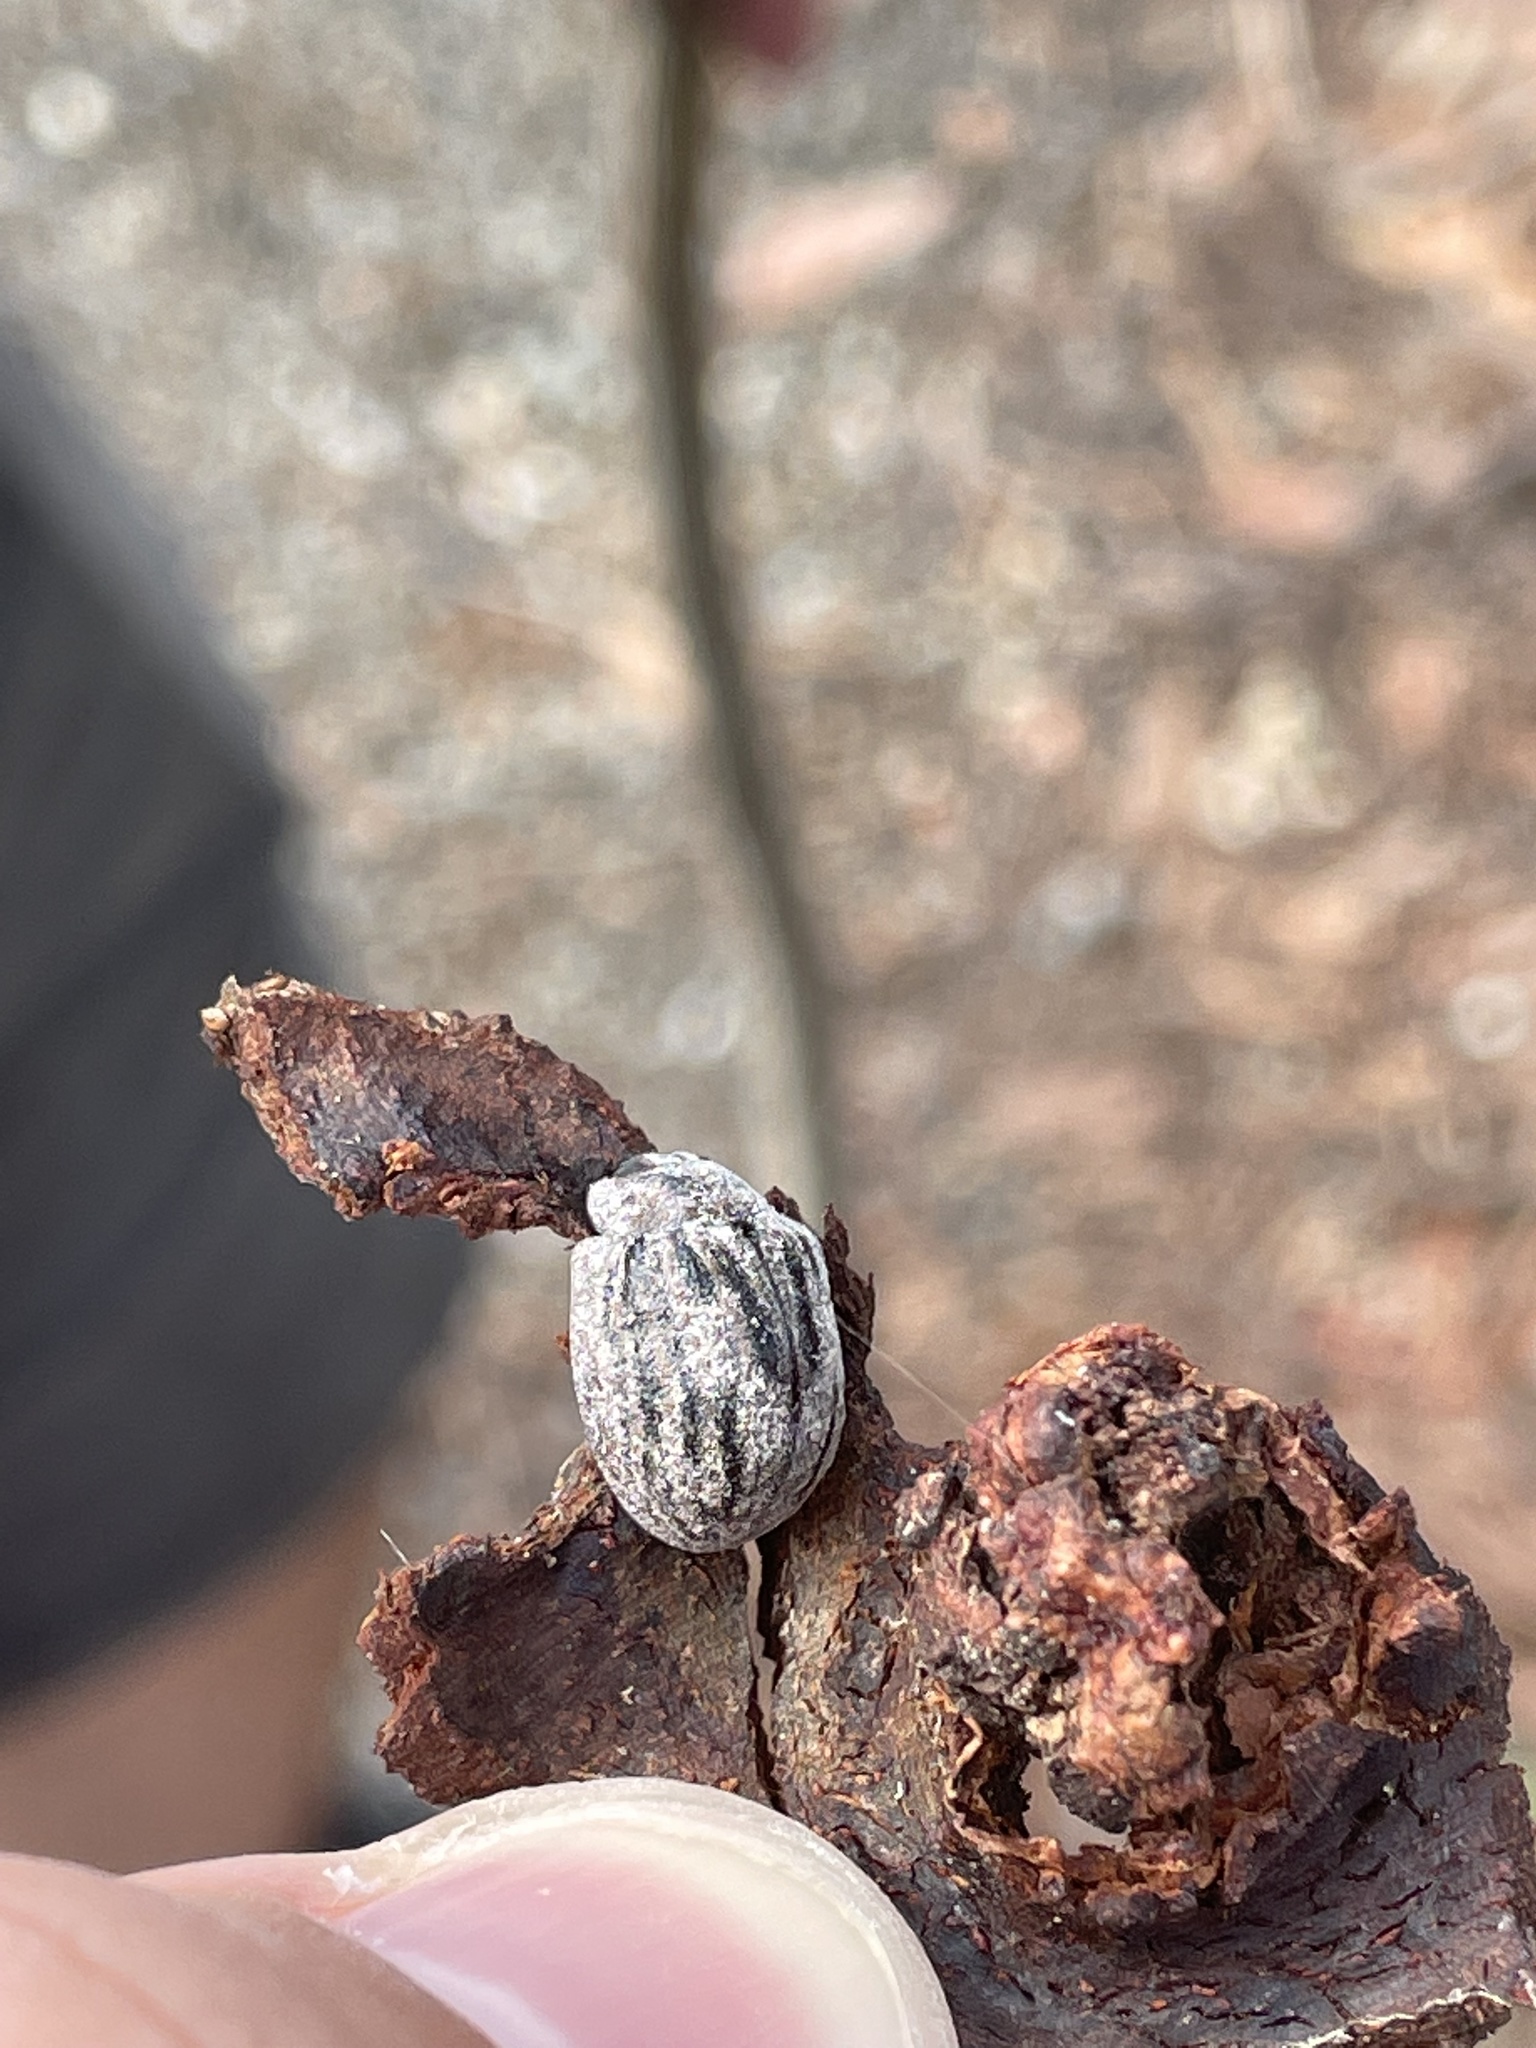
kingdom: Animalia
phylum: Arthropoda
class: Insecta
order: Coleoptera
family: Chrysomelidae
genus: Trachymela
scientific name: Trachymela
